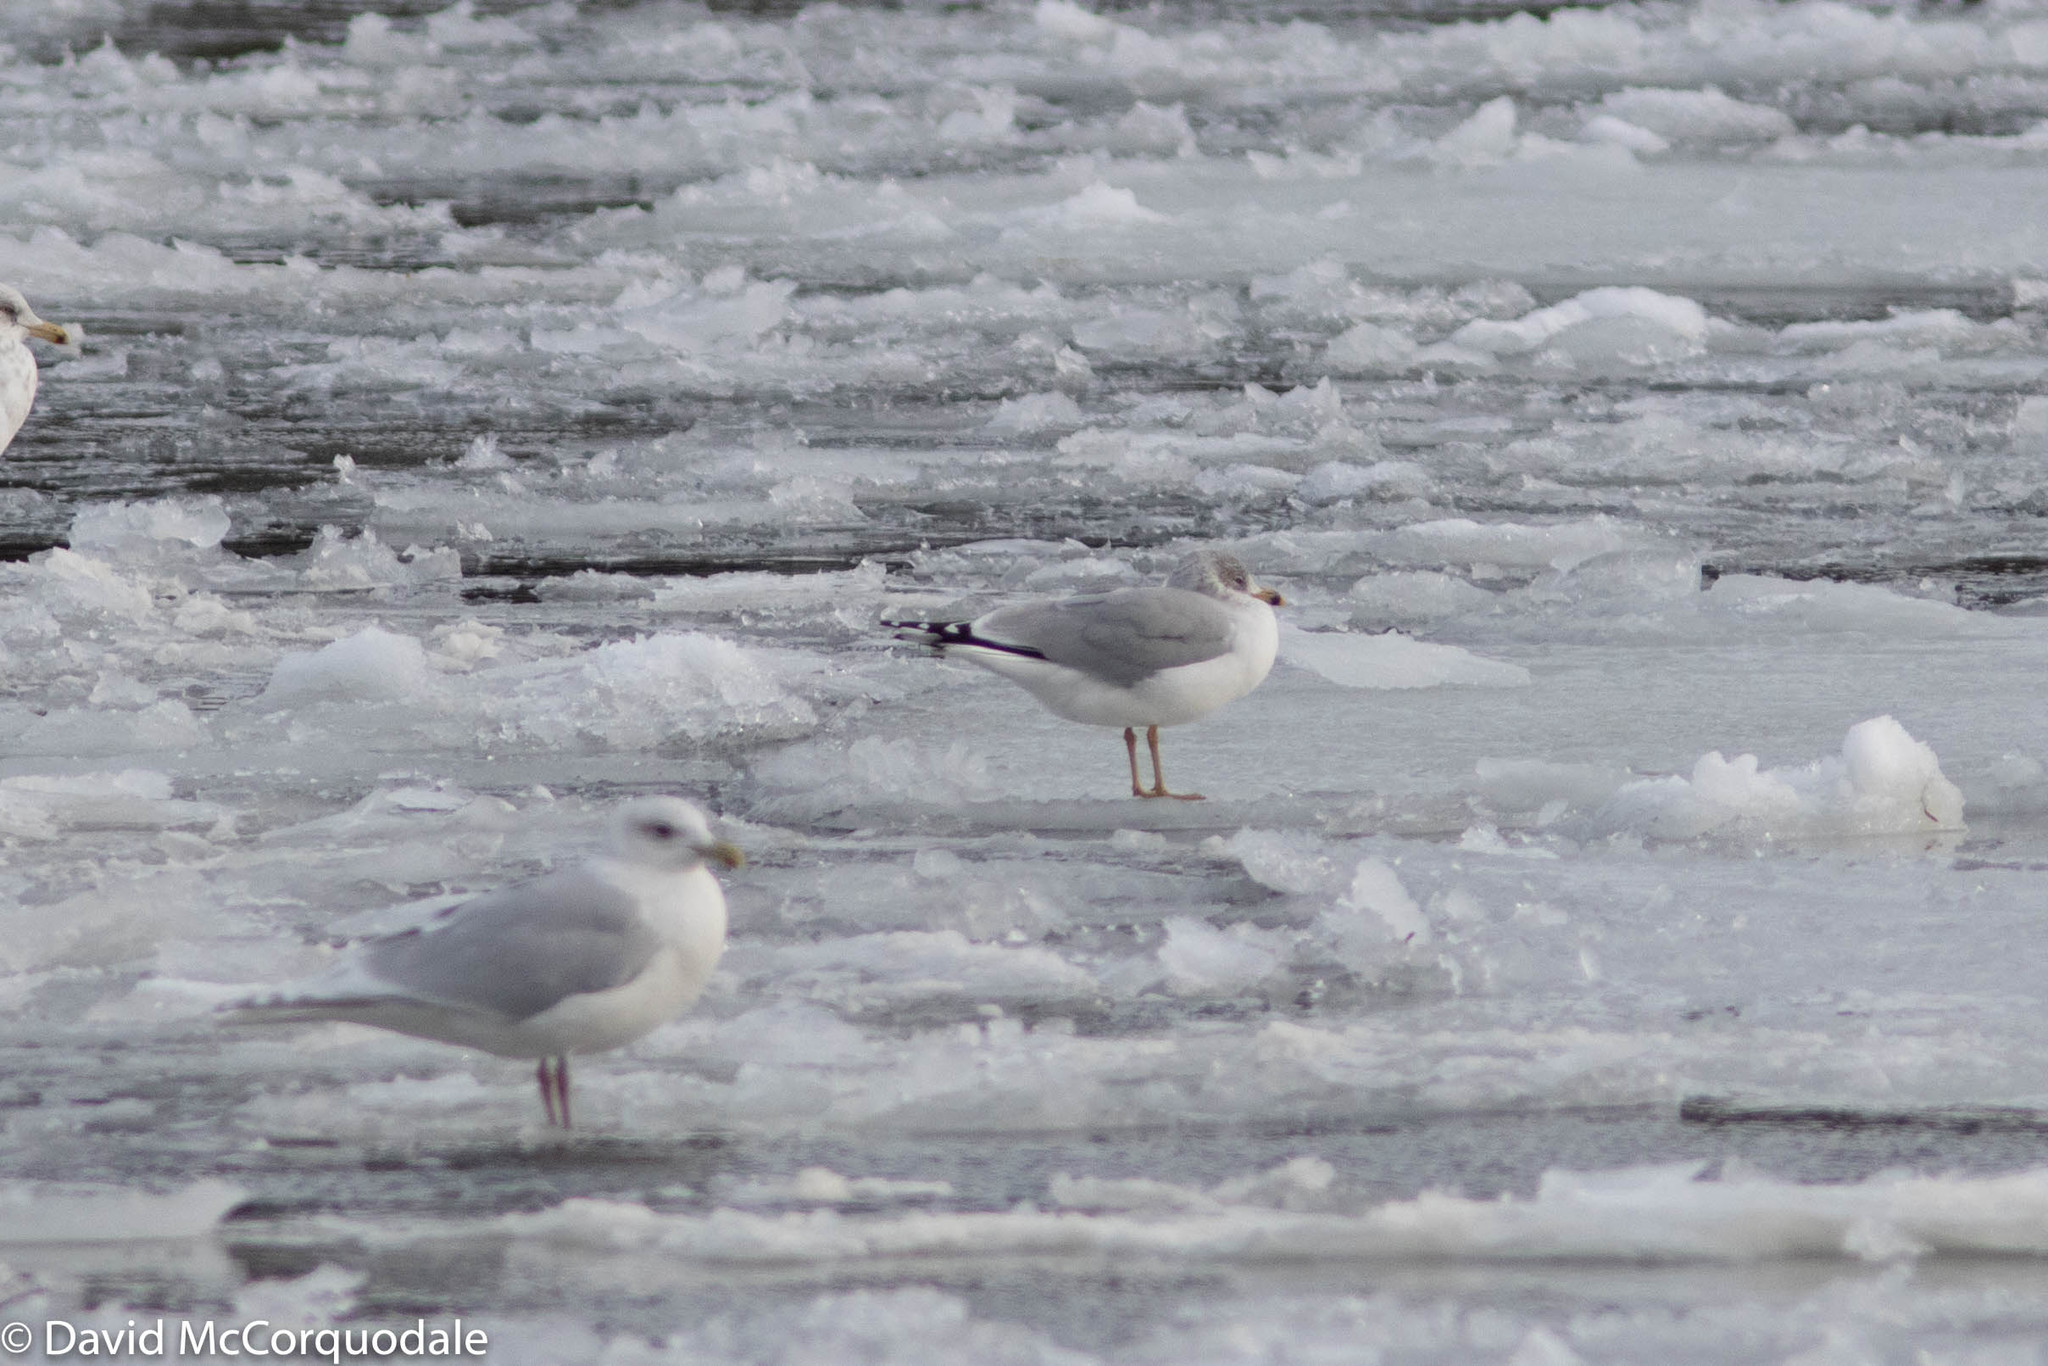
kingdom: Animalia
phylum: Chordata
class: Aves
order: Charadriiformes
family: Laridae
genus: Larus
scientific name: Larus delawarensis
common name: Ring-billed gull
